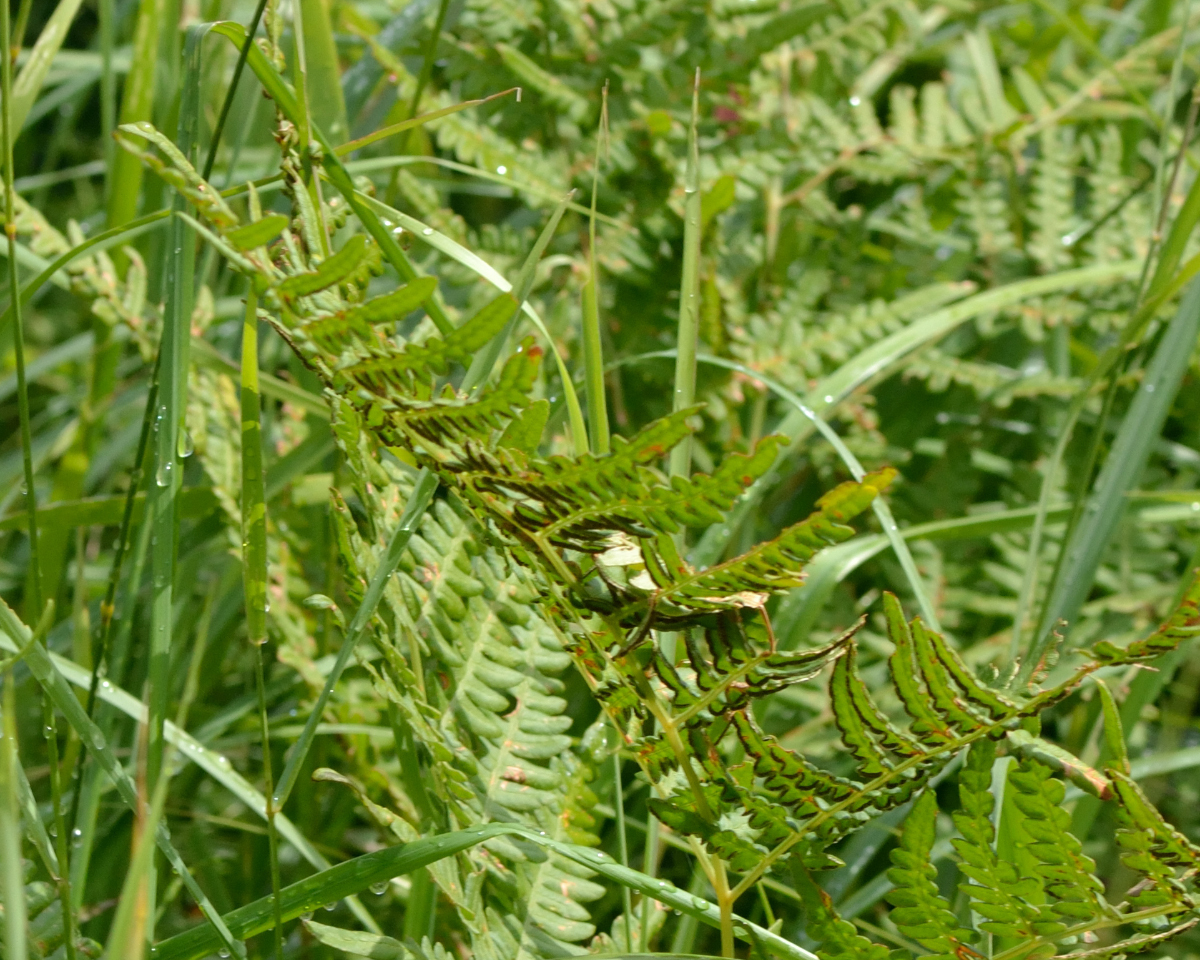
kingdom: Plantae
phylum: Tracheophyta
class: Polypodiopsida
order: Polypodiales
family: Dennstaedtiaceae
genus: Pteridium
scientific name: Pteridium aquilinum
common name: Bracken
